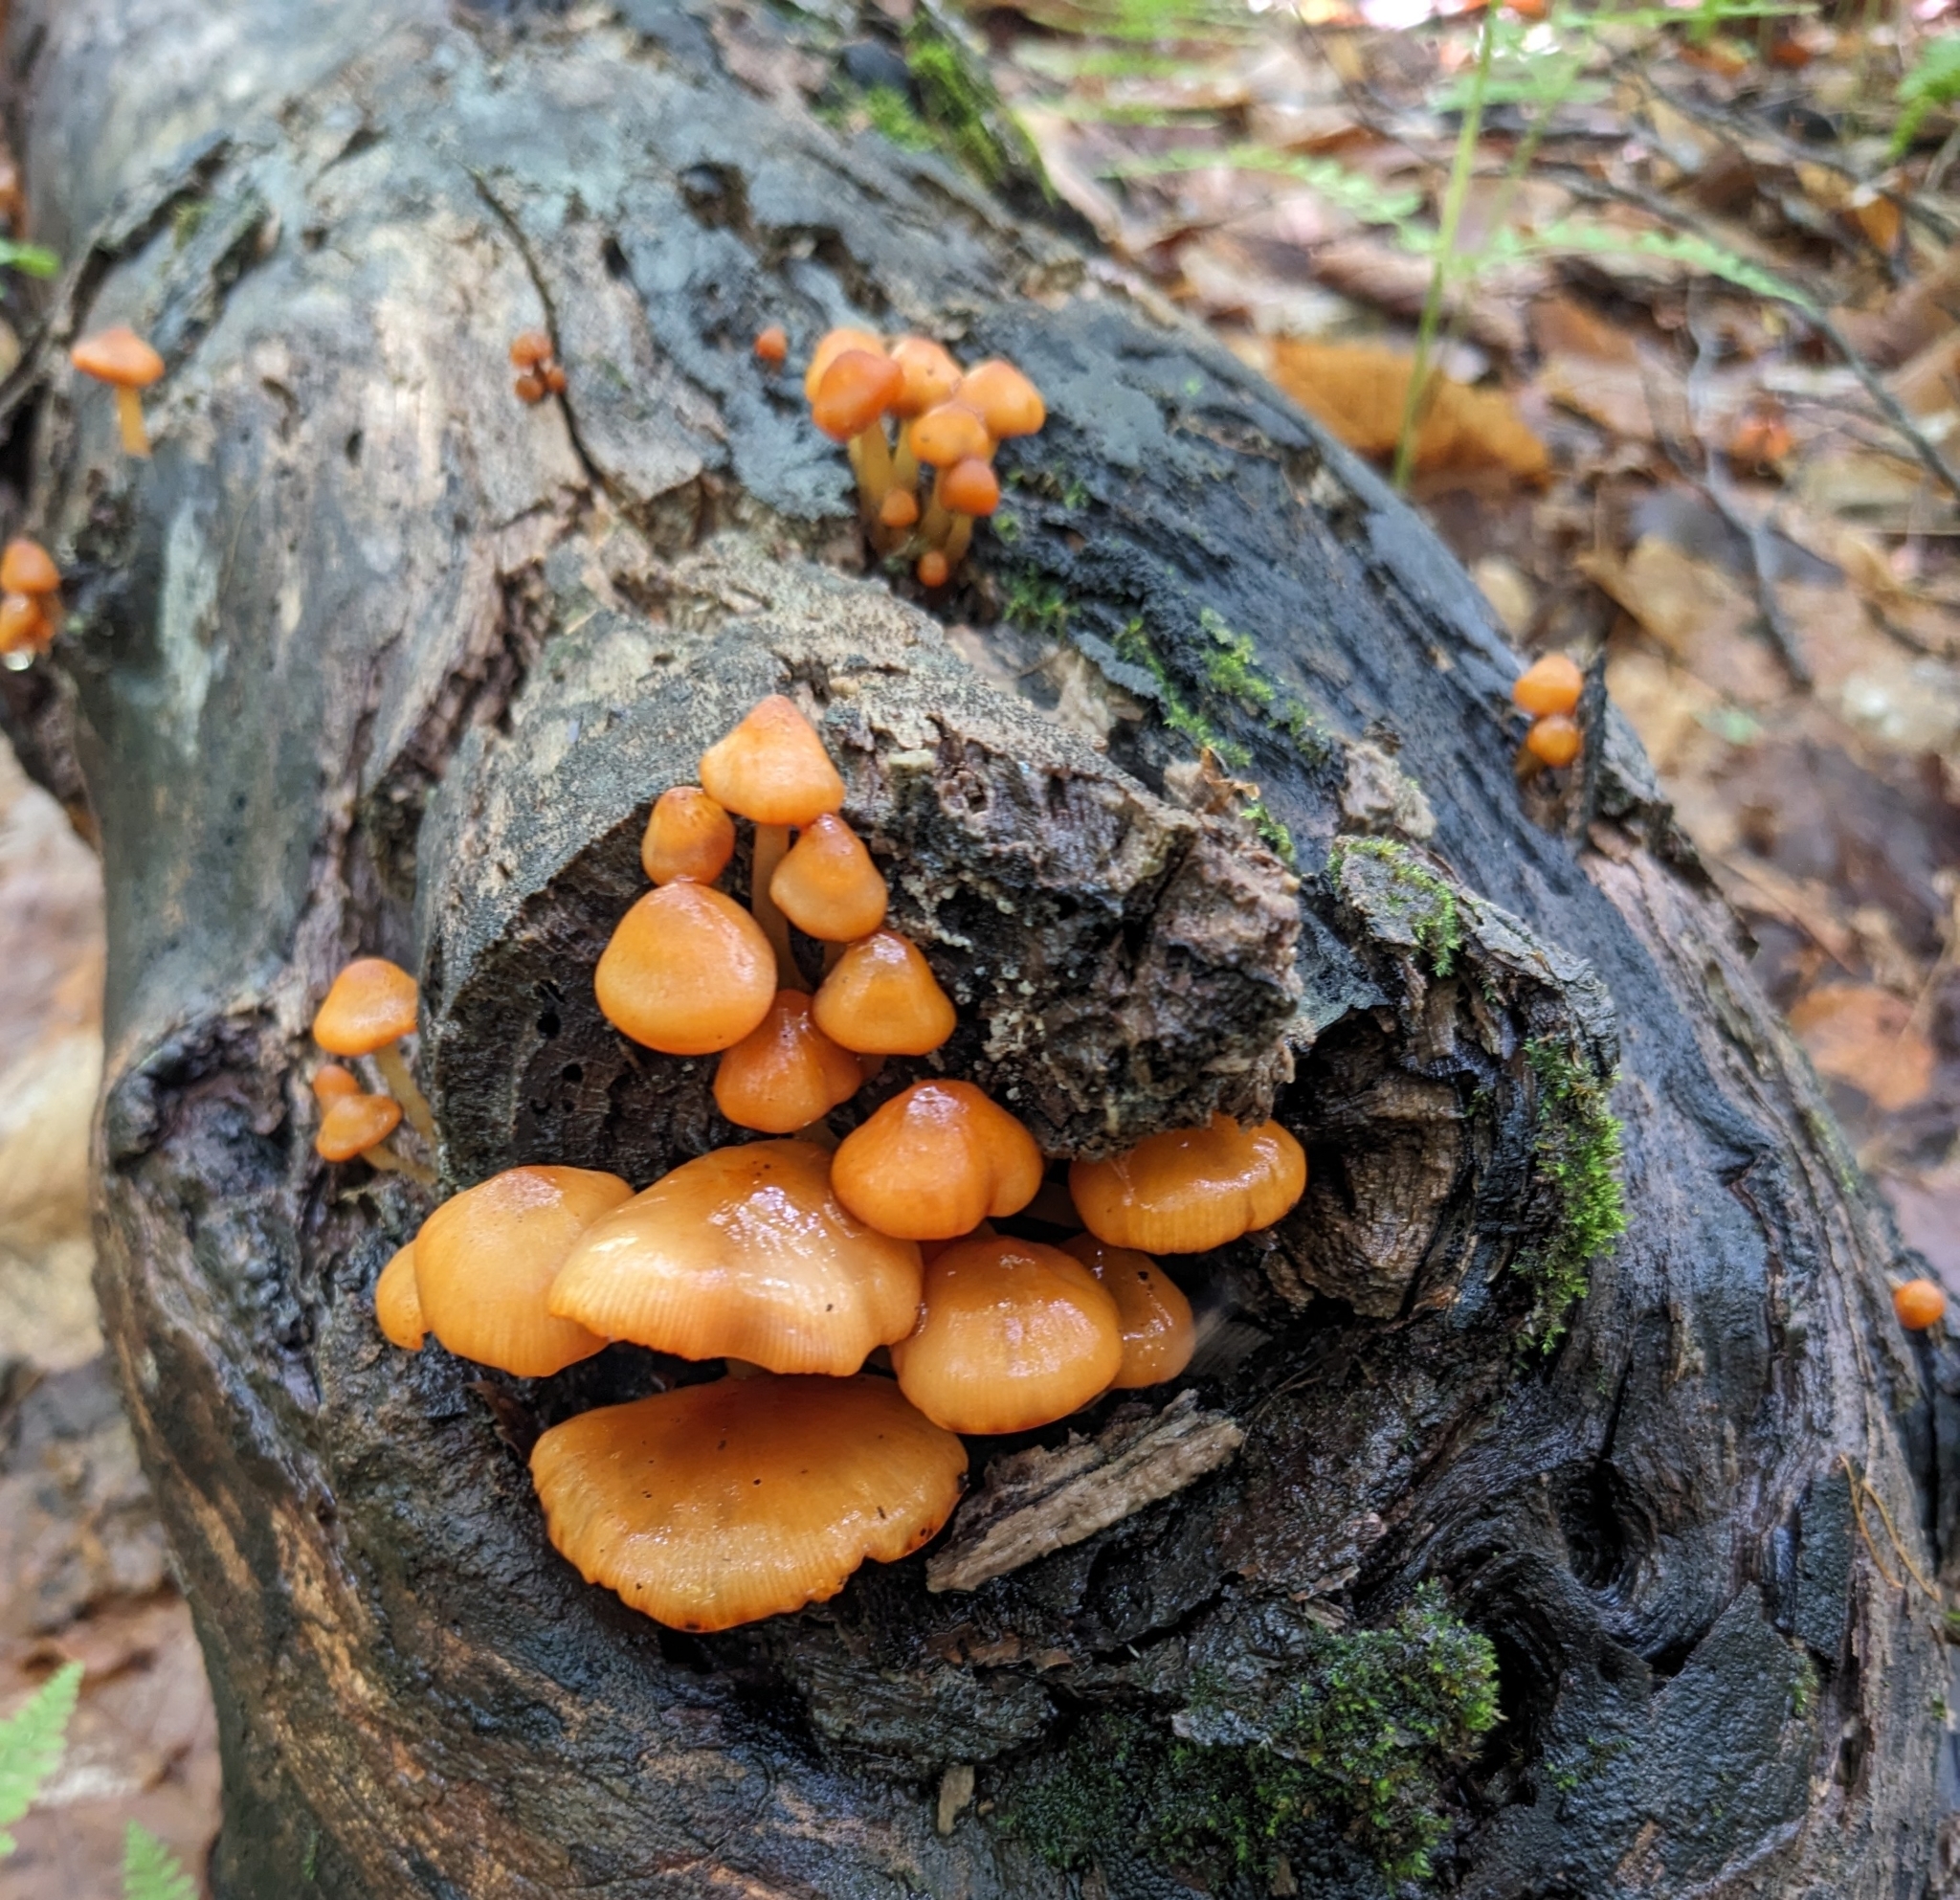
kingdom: Fungi
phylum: Basidiomycota
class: Agaricomycetes
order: Agaricales
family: Mycenaceae
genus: Mycena
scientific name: Mycena leaiana
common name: Orange mycena
